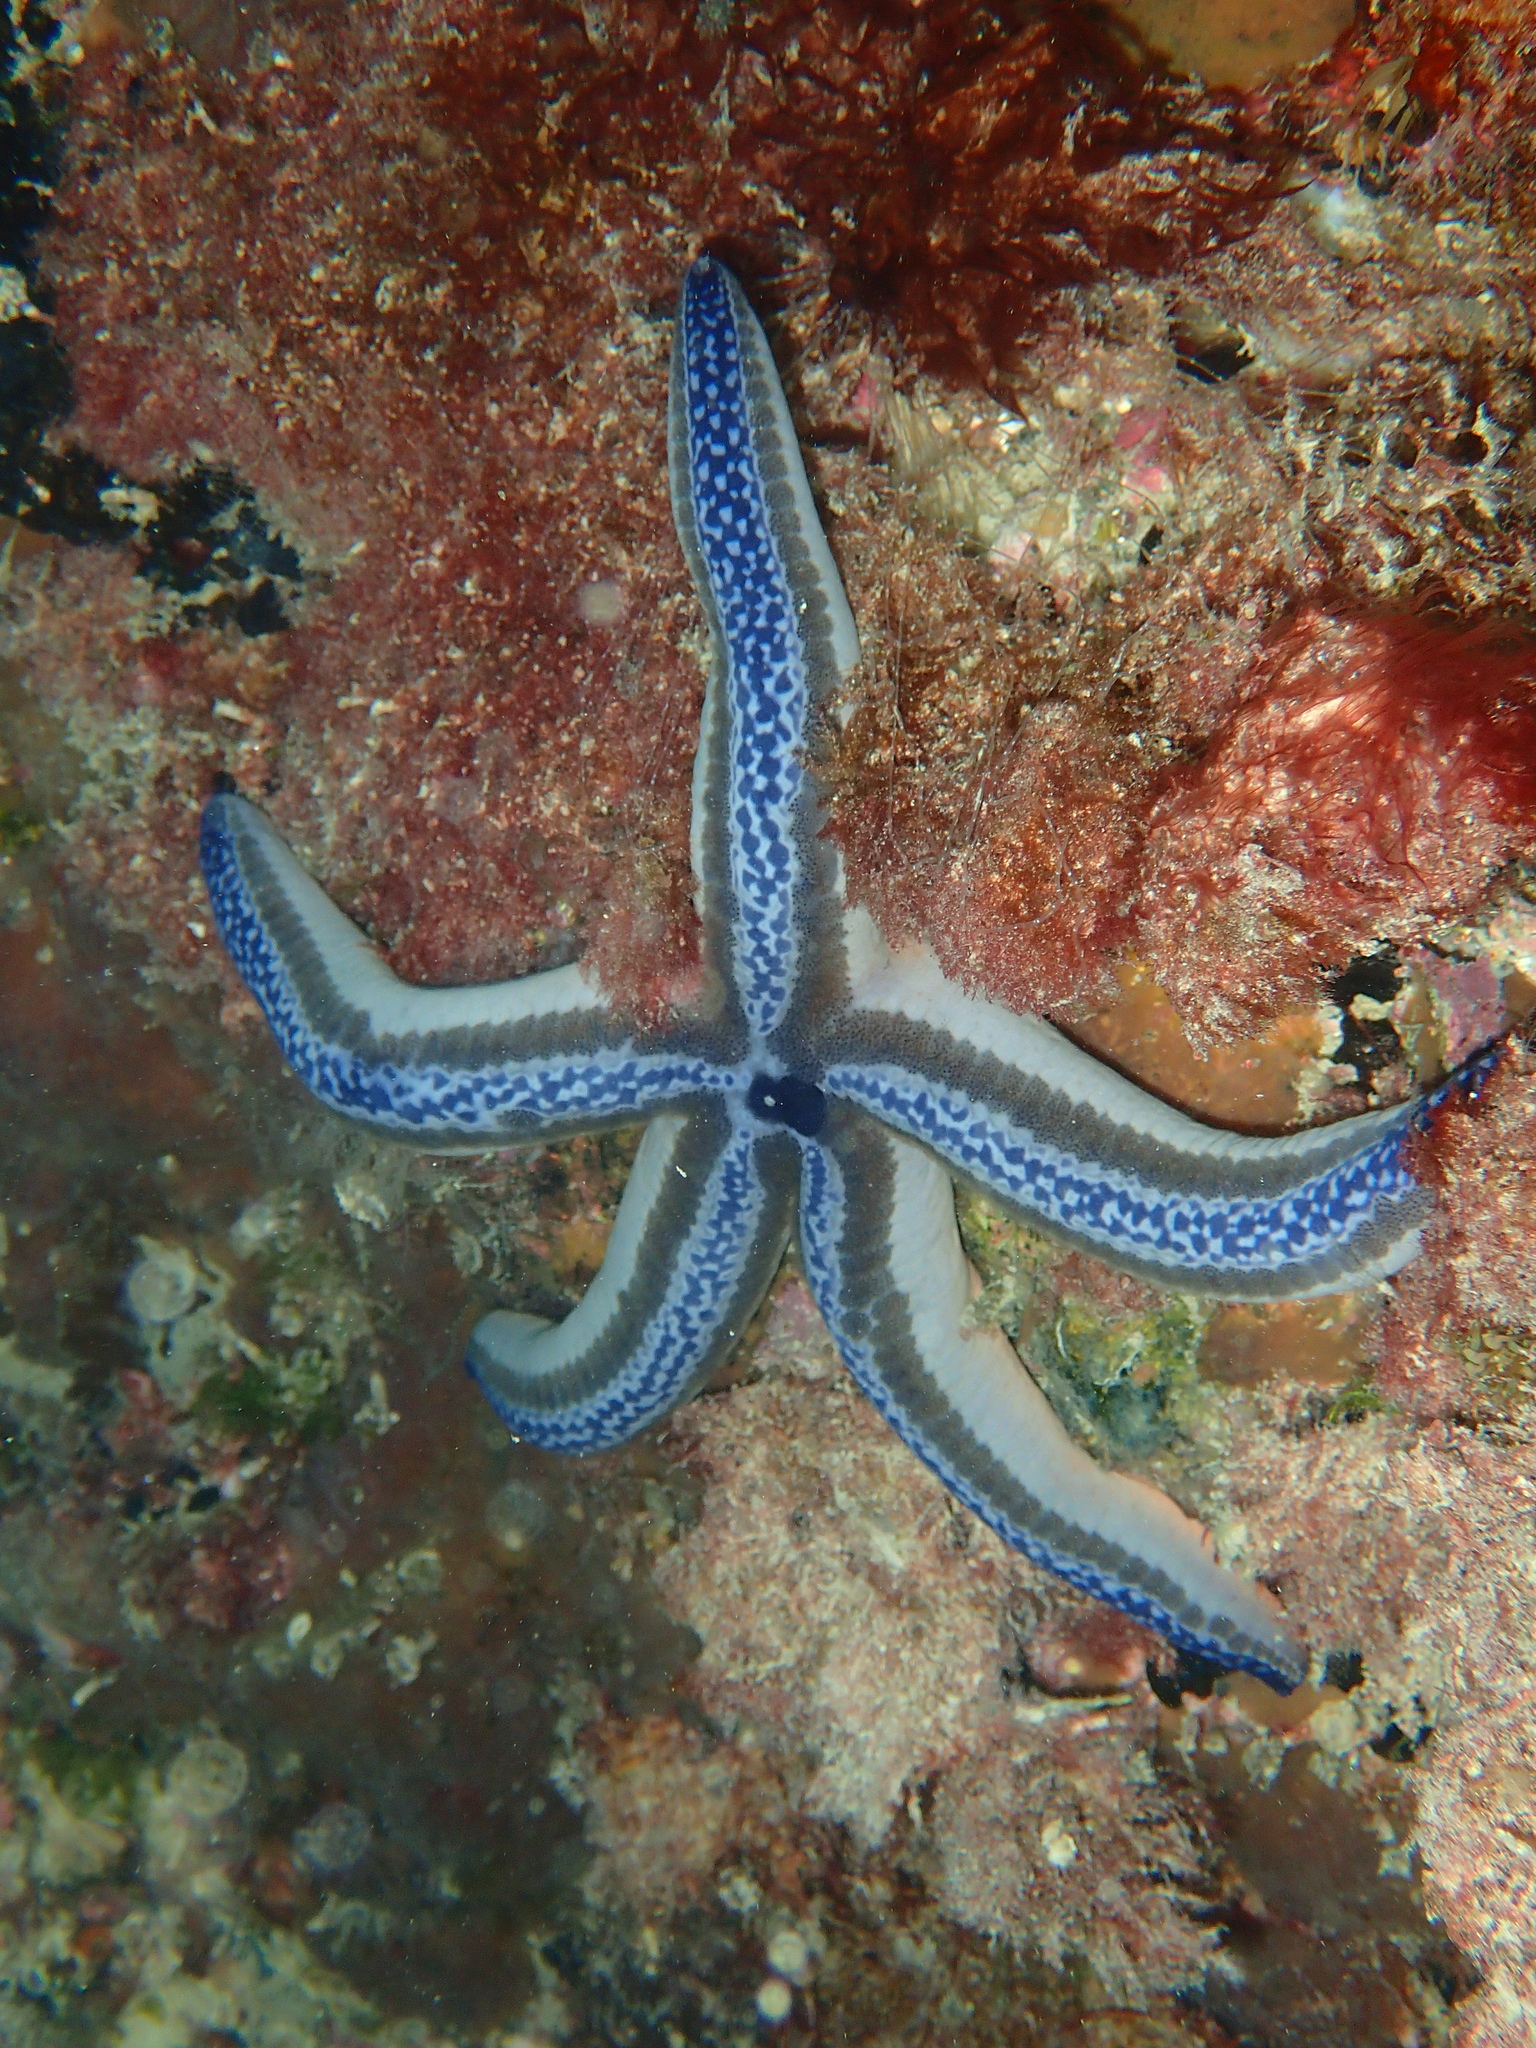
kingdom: Animalia
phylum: Echinodermata
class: Asteroidea
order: Valvatida
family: Ophidiasteridae
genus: Phataria
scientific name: Phataria unifascialis
